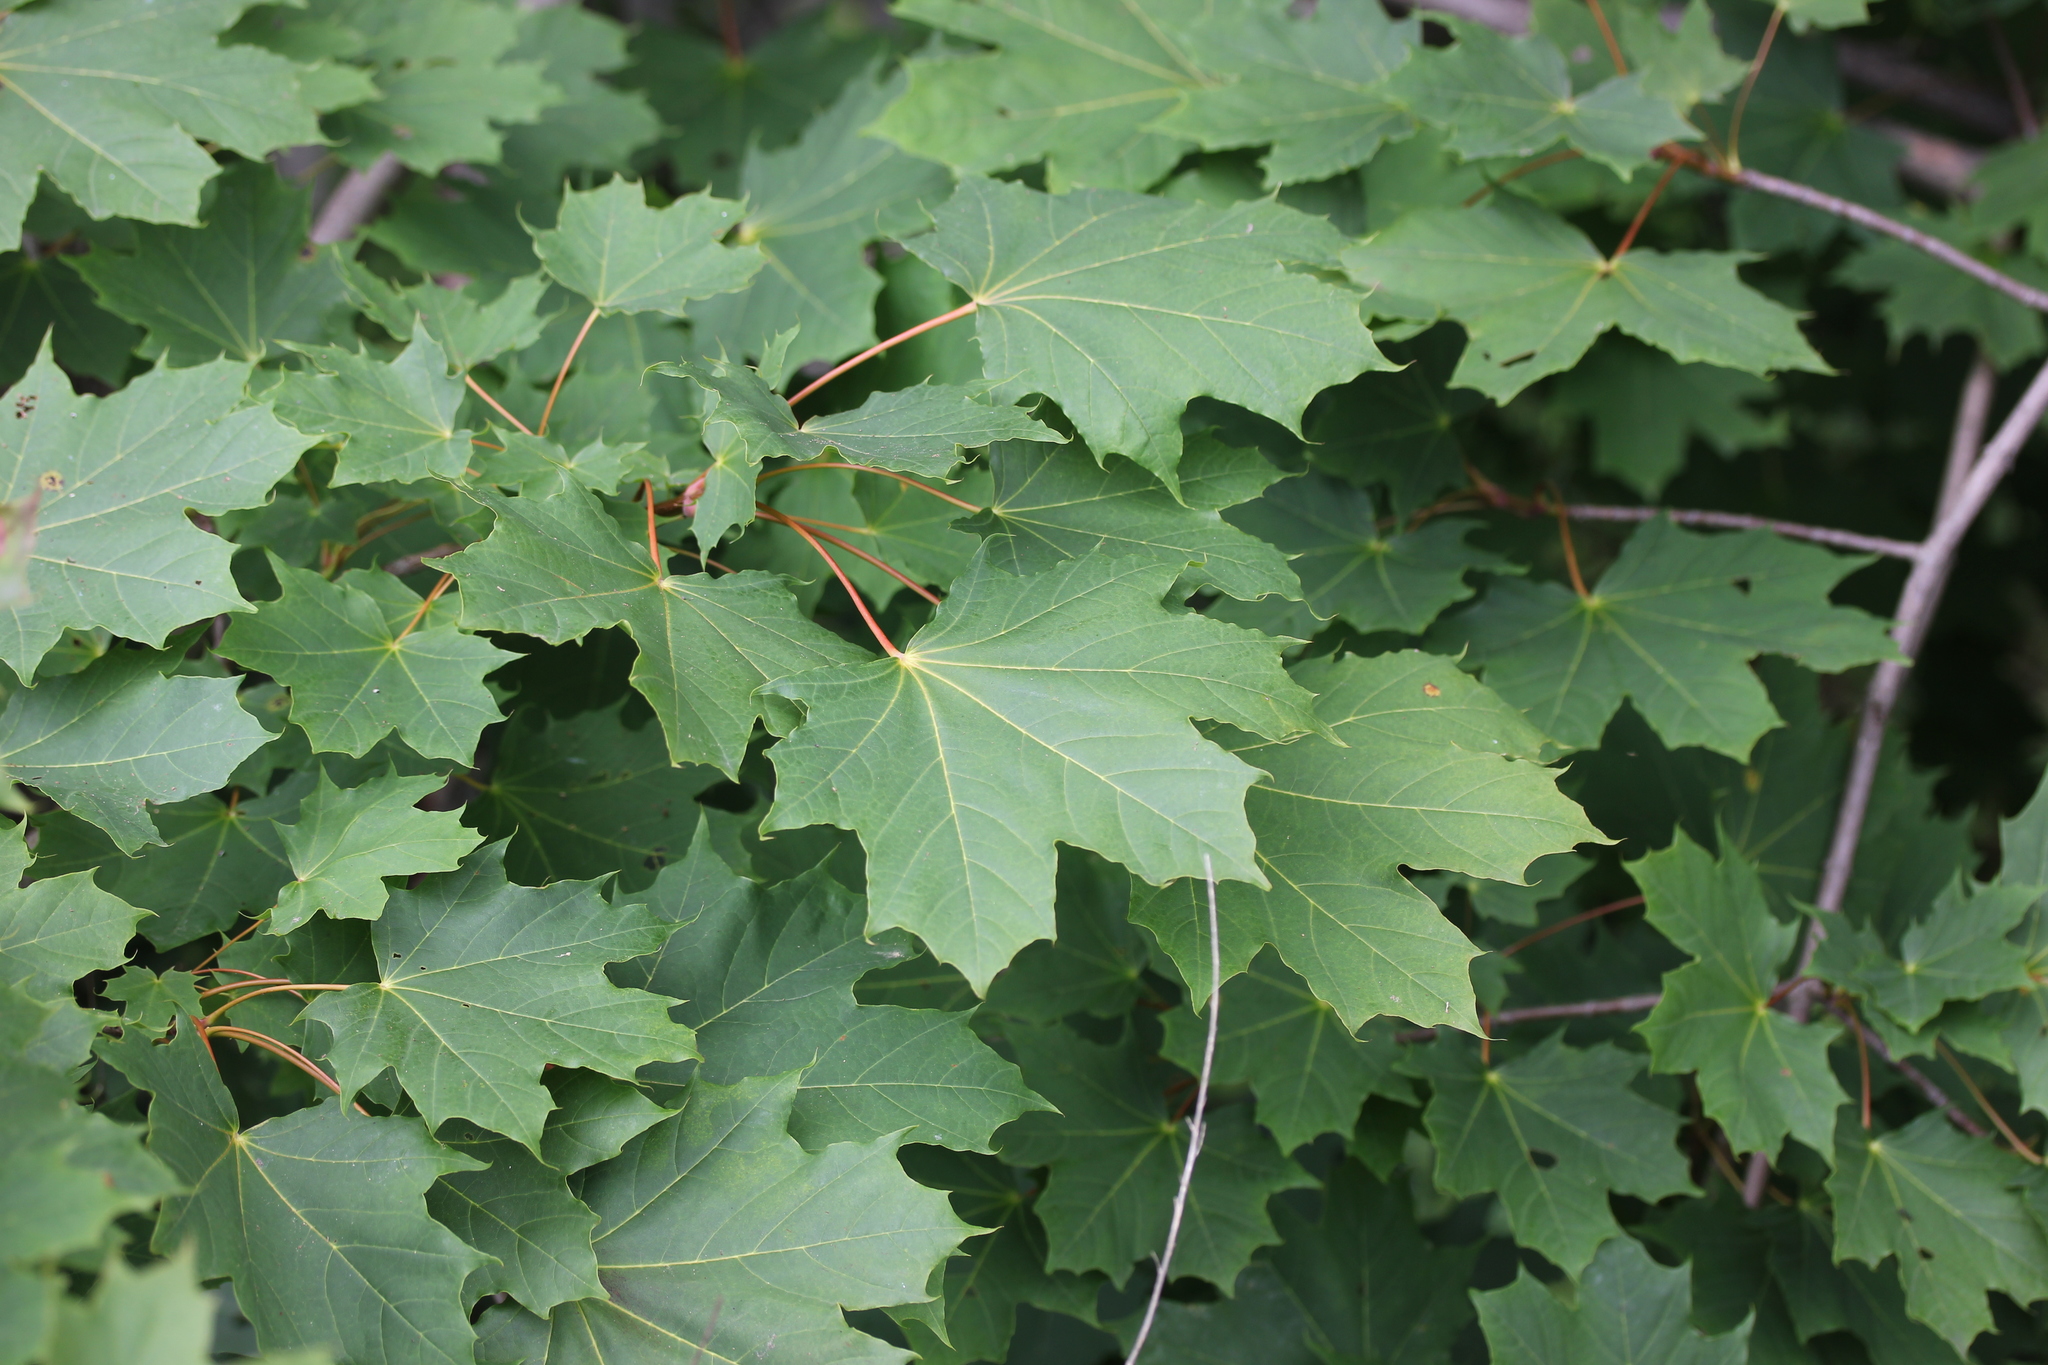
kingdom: Plantae
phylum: Tracheophyta
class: Magnoliopsida
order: Sapindales
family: Sapindaceae
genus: Acer
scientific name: Acer platanoides
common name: Norway maple
